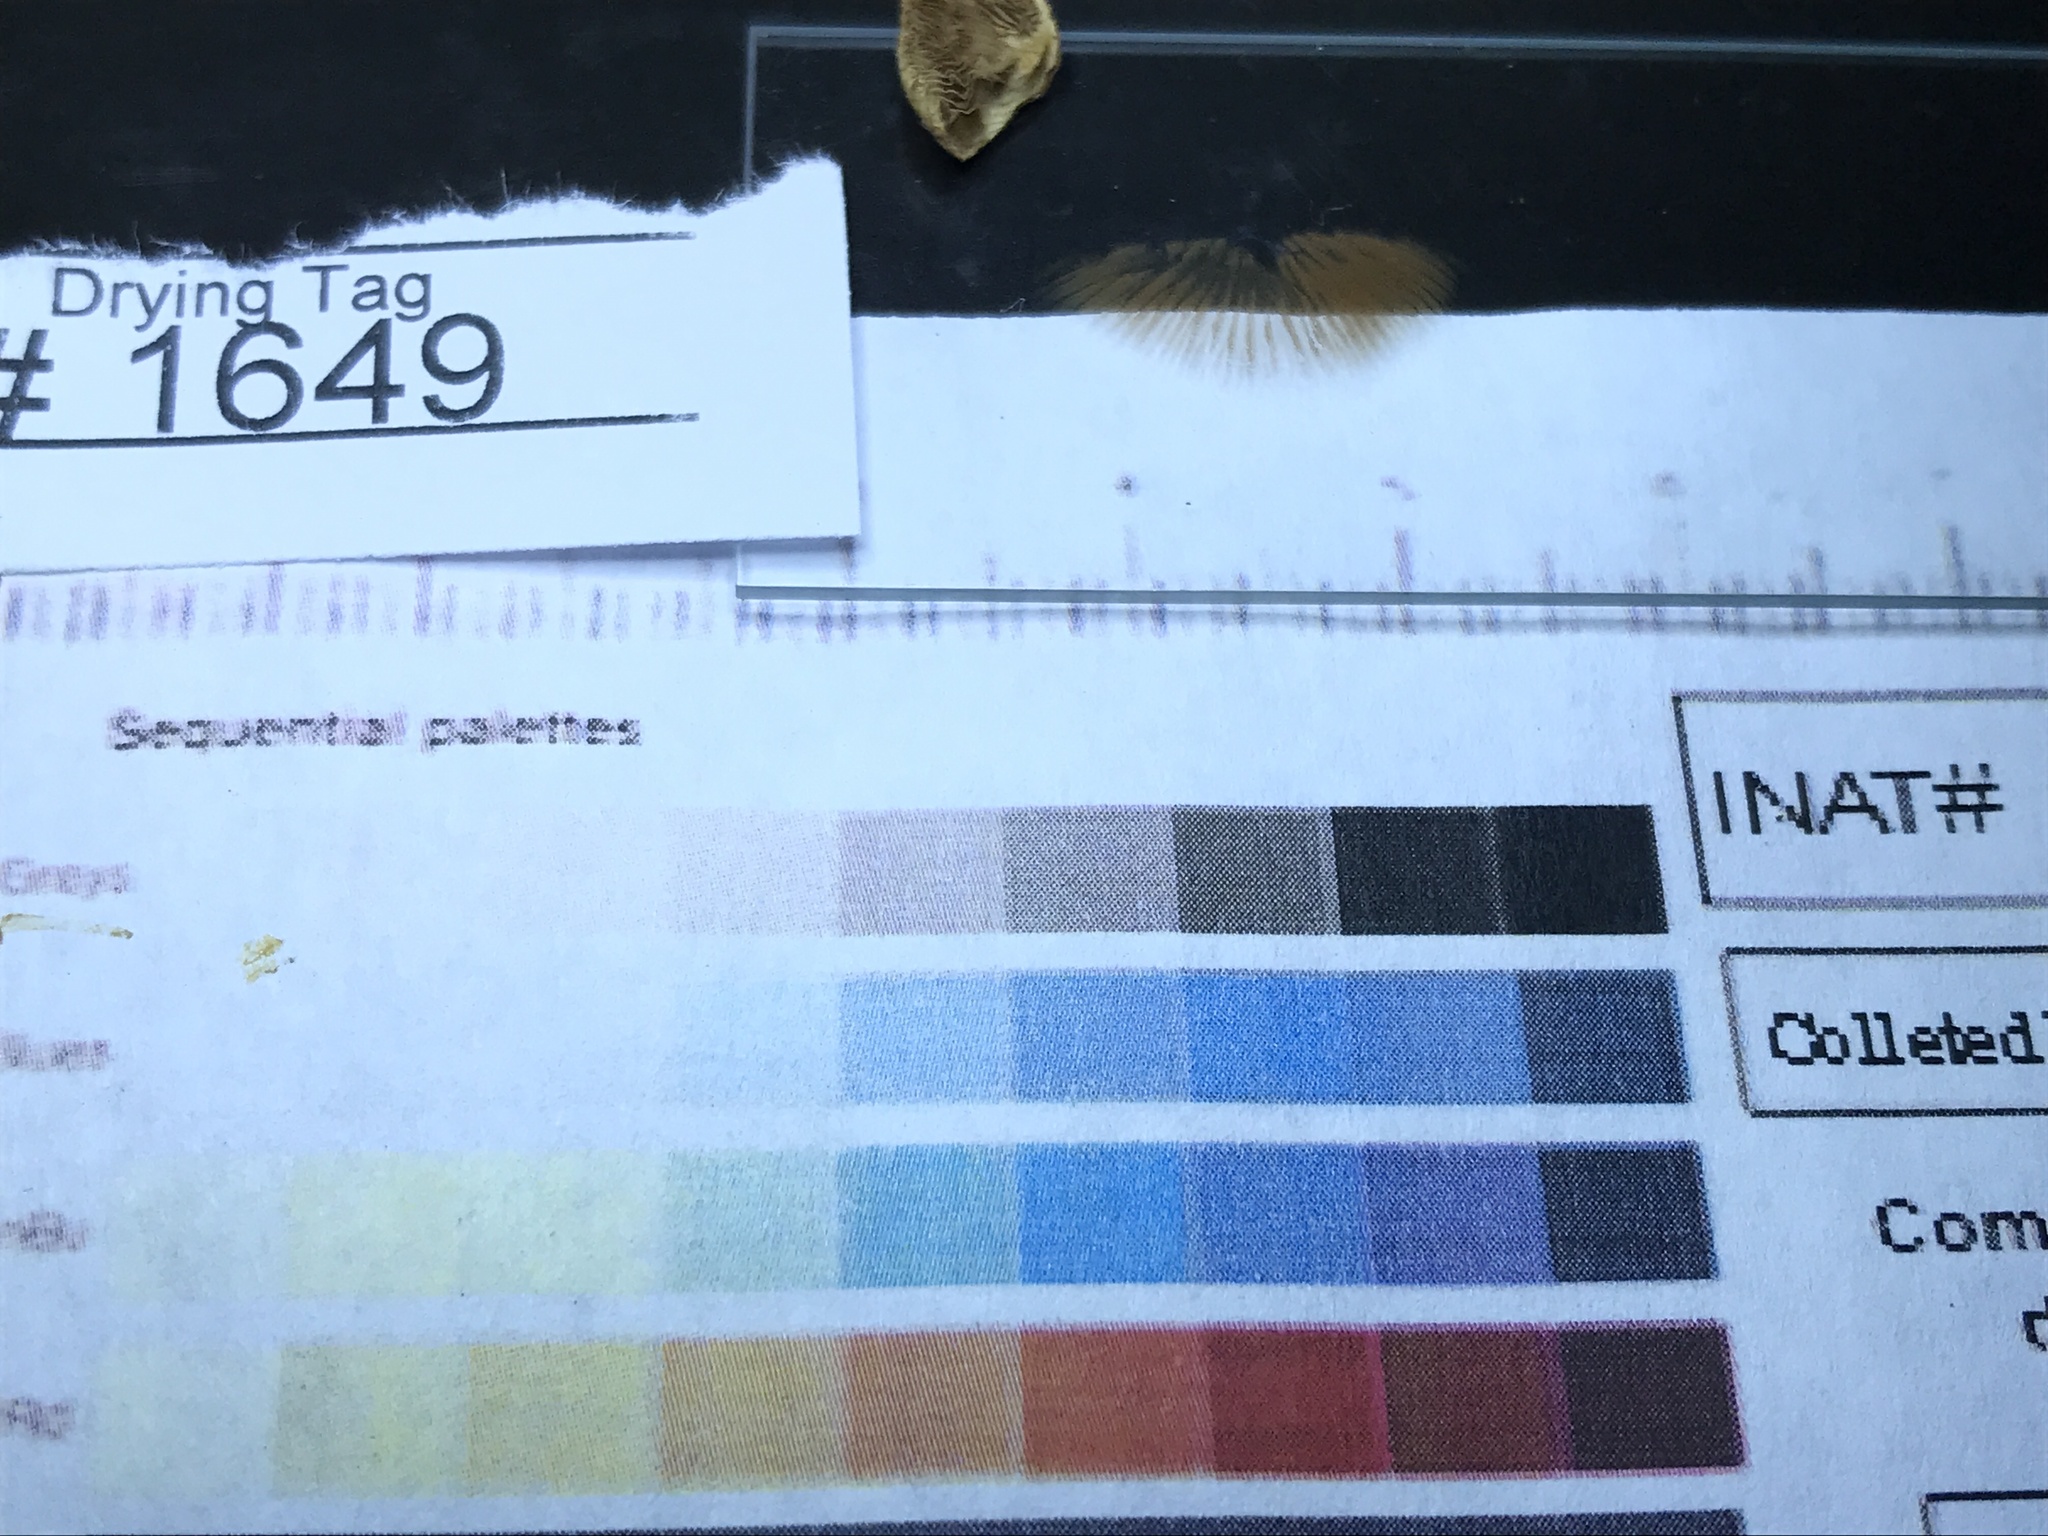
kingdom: Fungi
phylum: Basidiomycota
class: Agaricomycetes
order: Agaricales
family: Strophariaceae
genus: Agrocybe
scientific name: Agrocybe acericola
